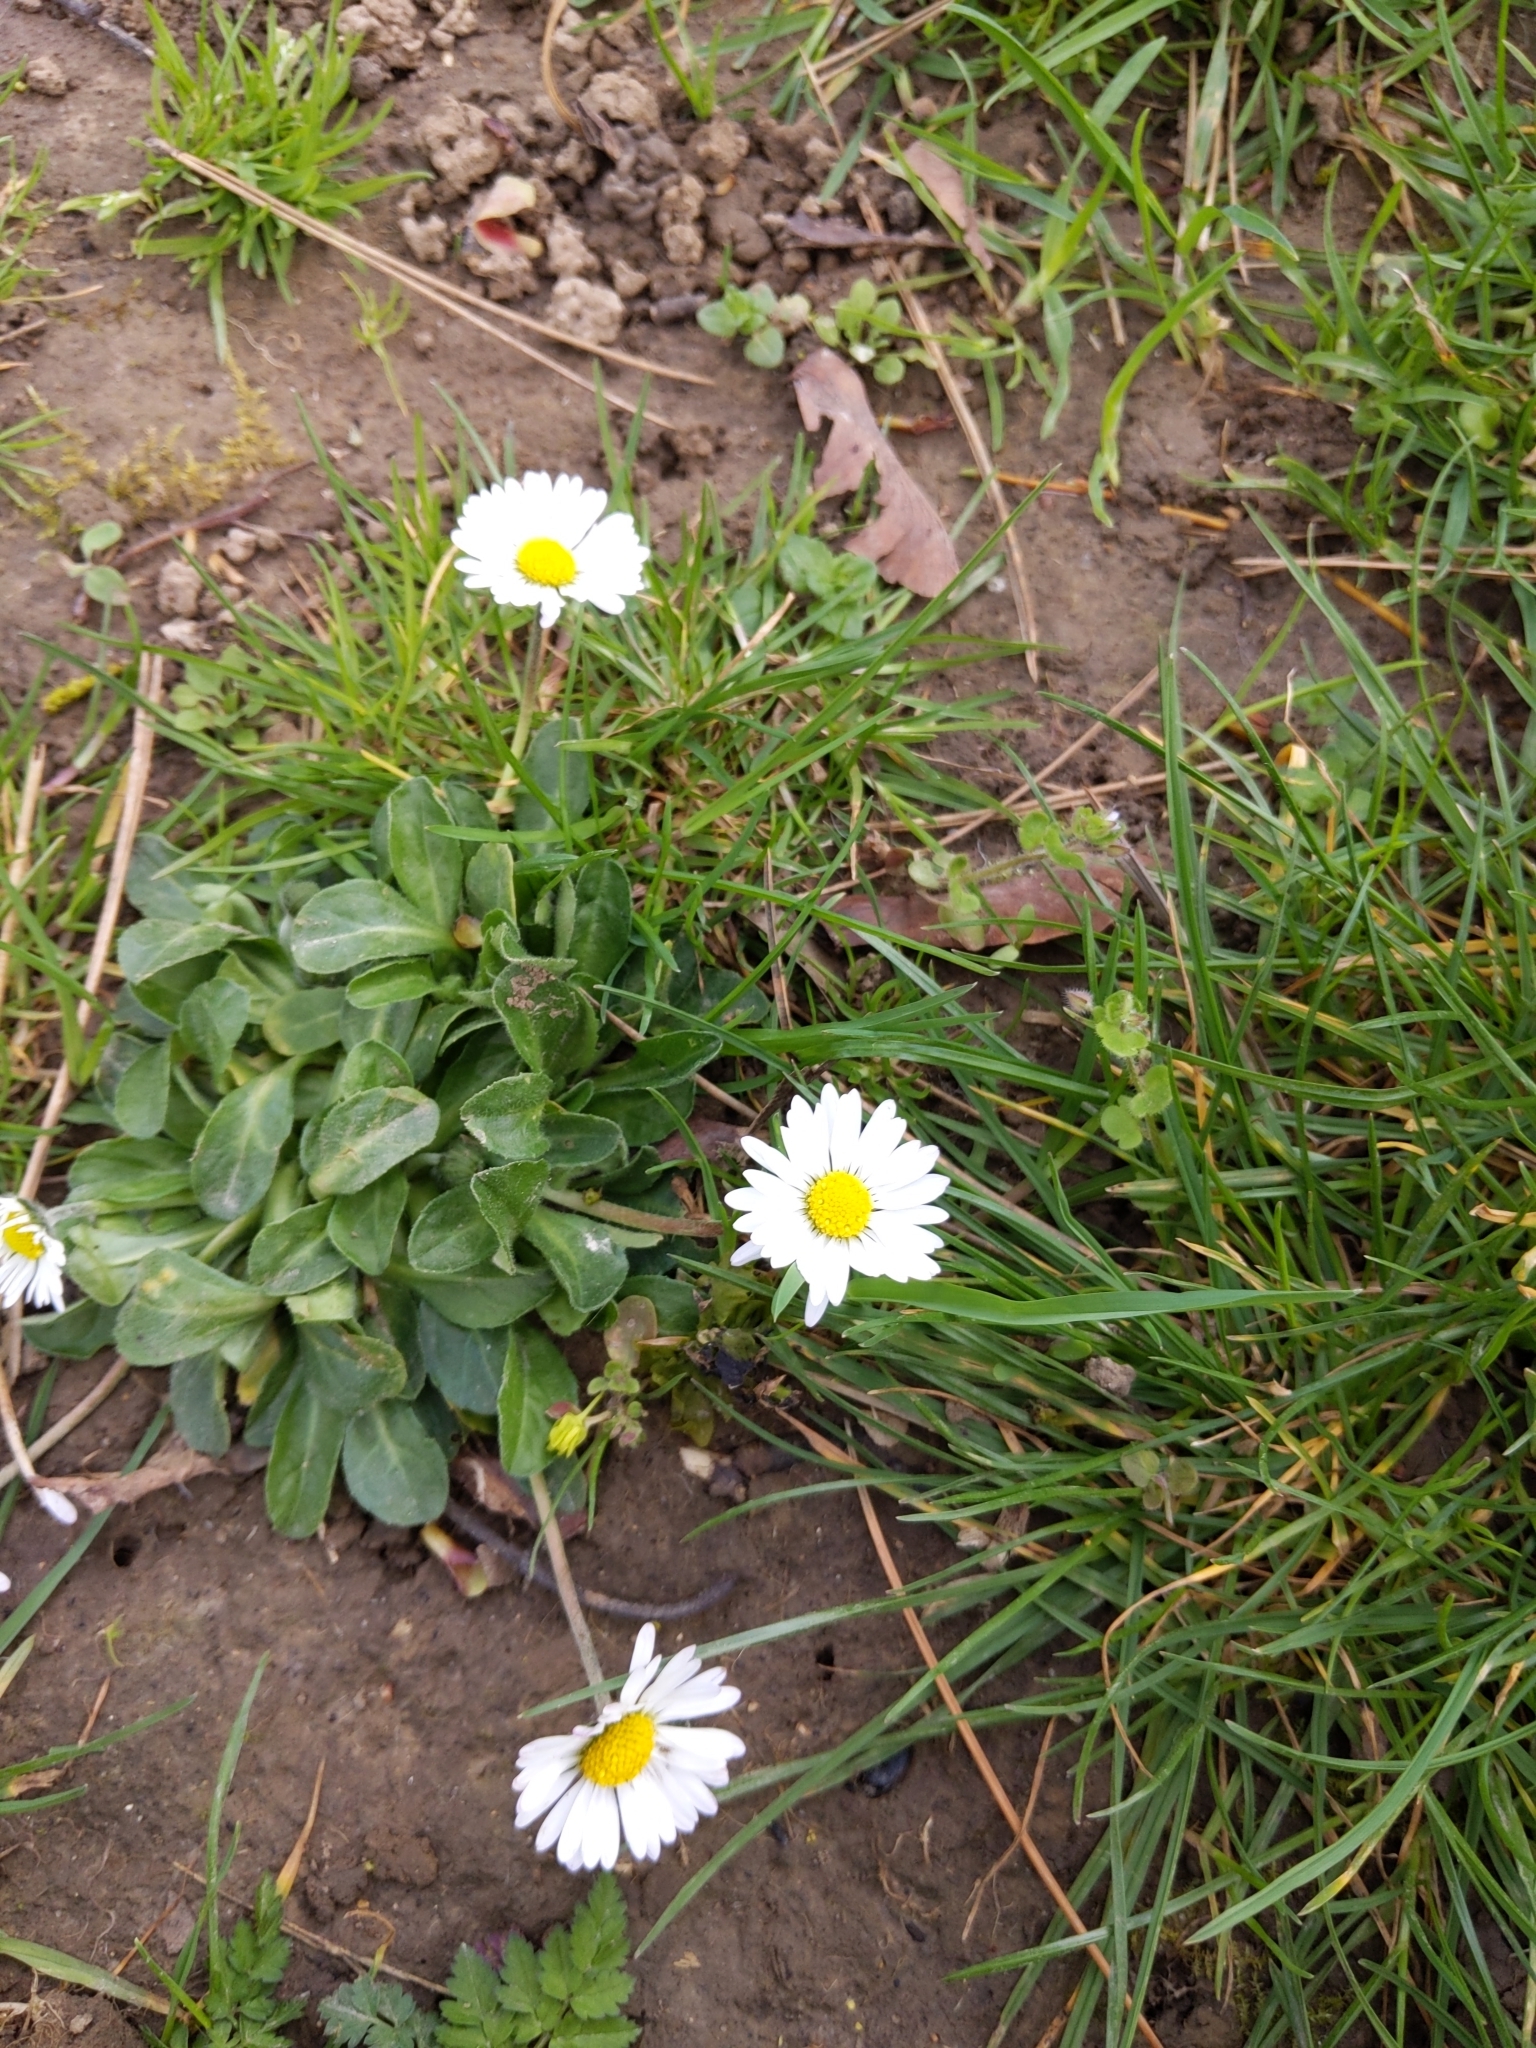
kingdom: Plantae
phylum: Tracheophyta
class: Magnoliopsida
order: Asterales
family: Asteraceae
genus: Bellis
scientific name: Bellis perennis
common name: Lawndaisy
